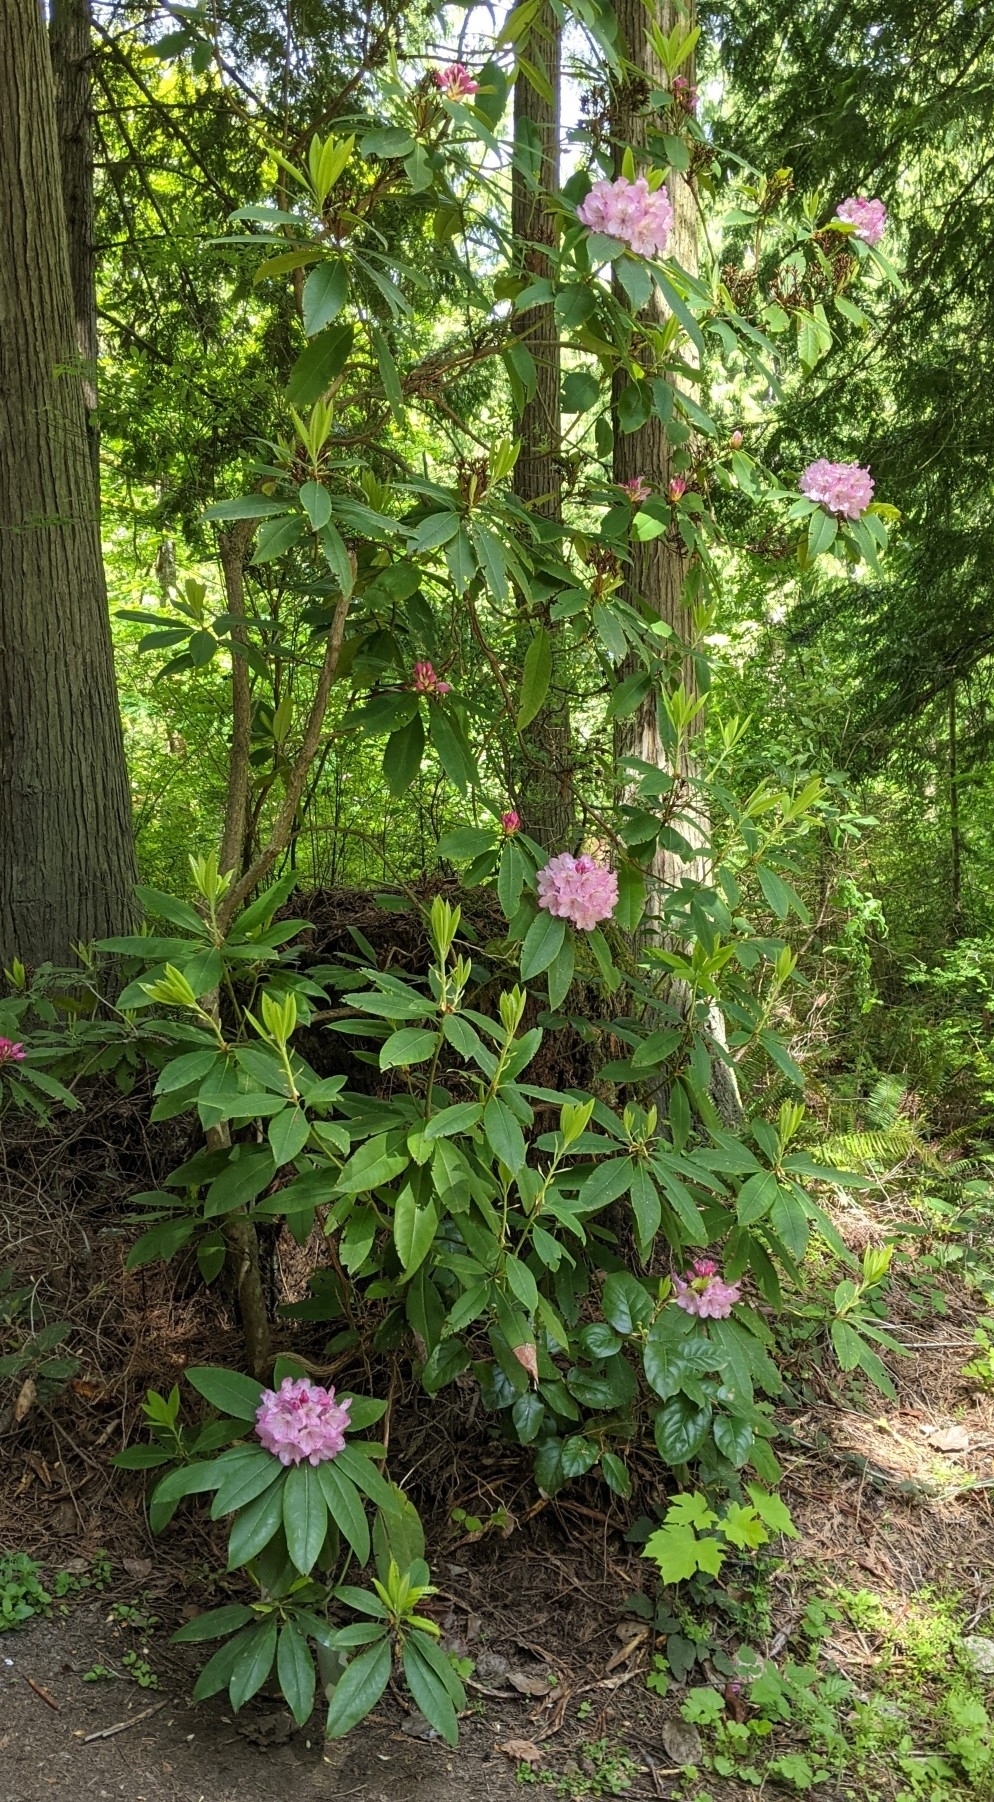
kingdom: Plantae
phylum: Tracheophyta
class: Magnoliopsida
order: Ericales
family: Ericaceae
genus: Rhododendron
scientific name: Rhododendron macrophyllum
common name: California rose bay
